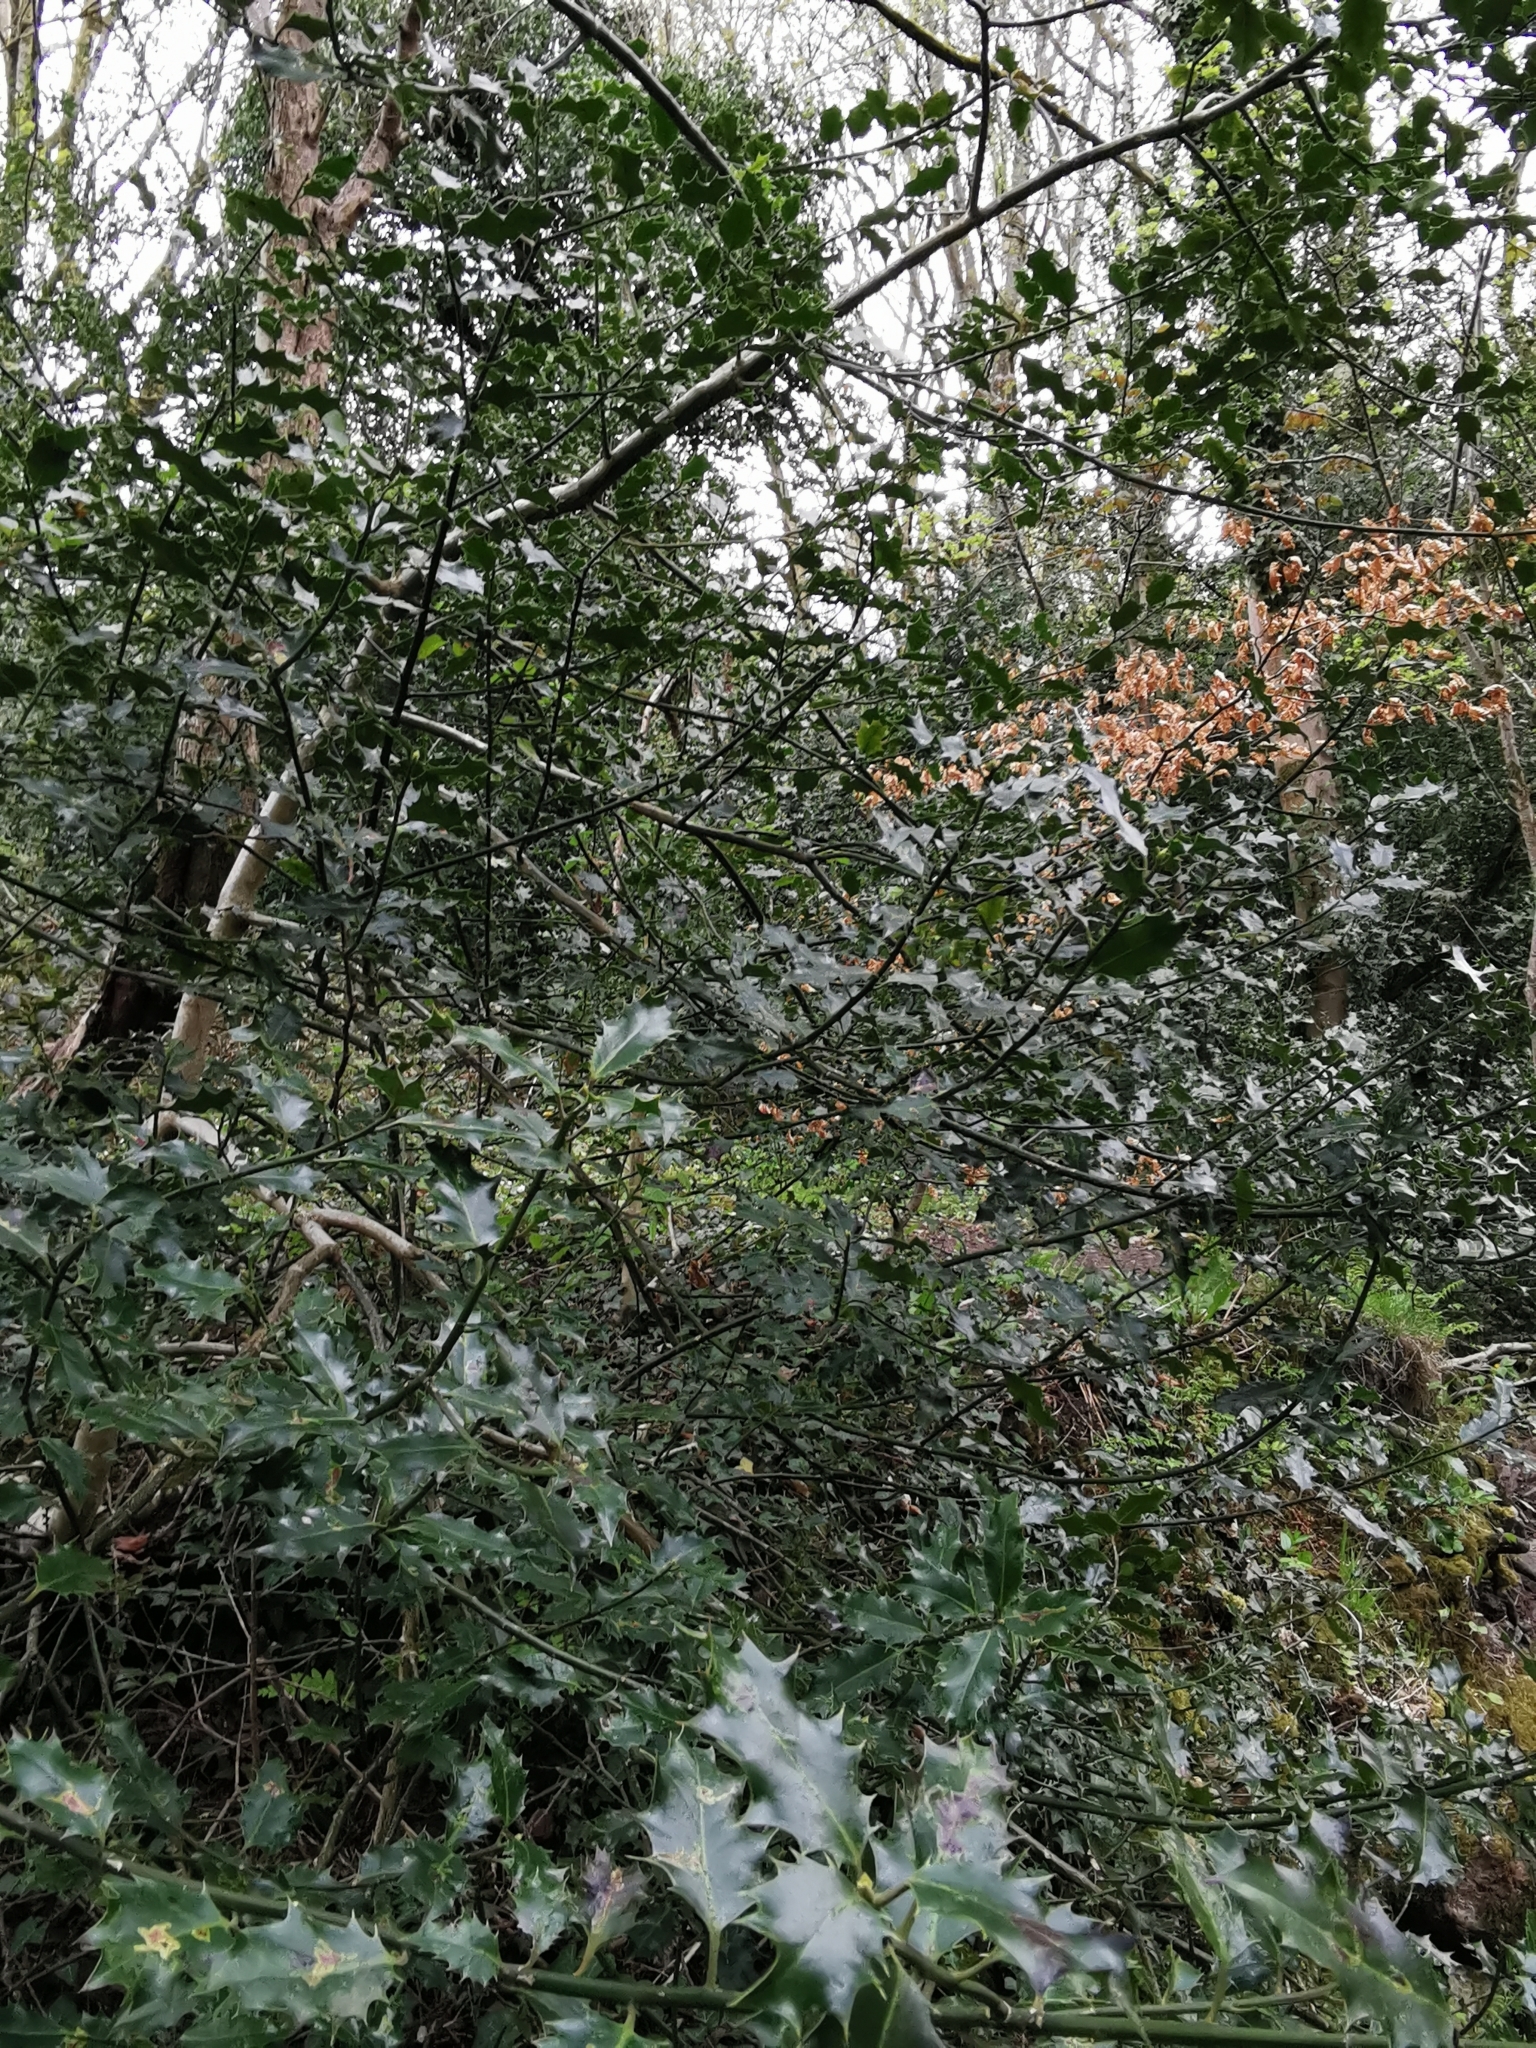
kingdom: Plantae
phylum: Tracheophyta
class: Magnoliopsida
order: Aquifoliales
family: Aquifoliaceae
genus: Ilex
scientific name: Ilex aquifolium
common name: English holly
